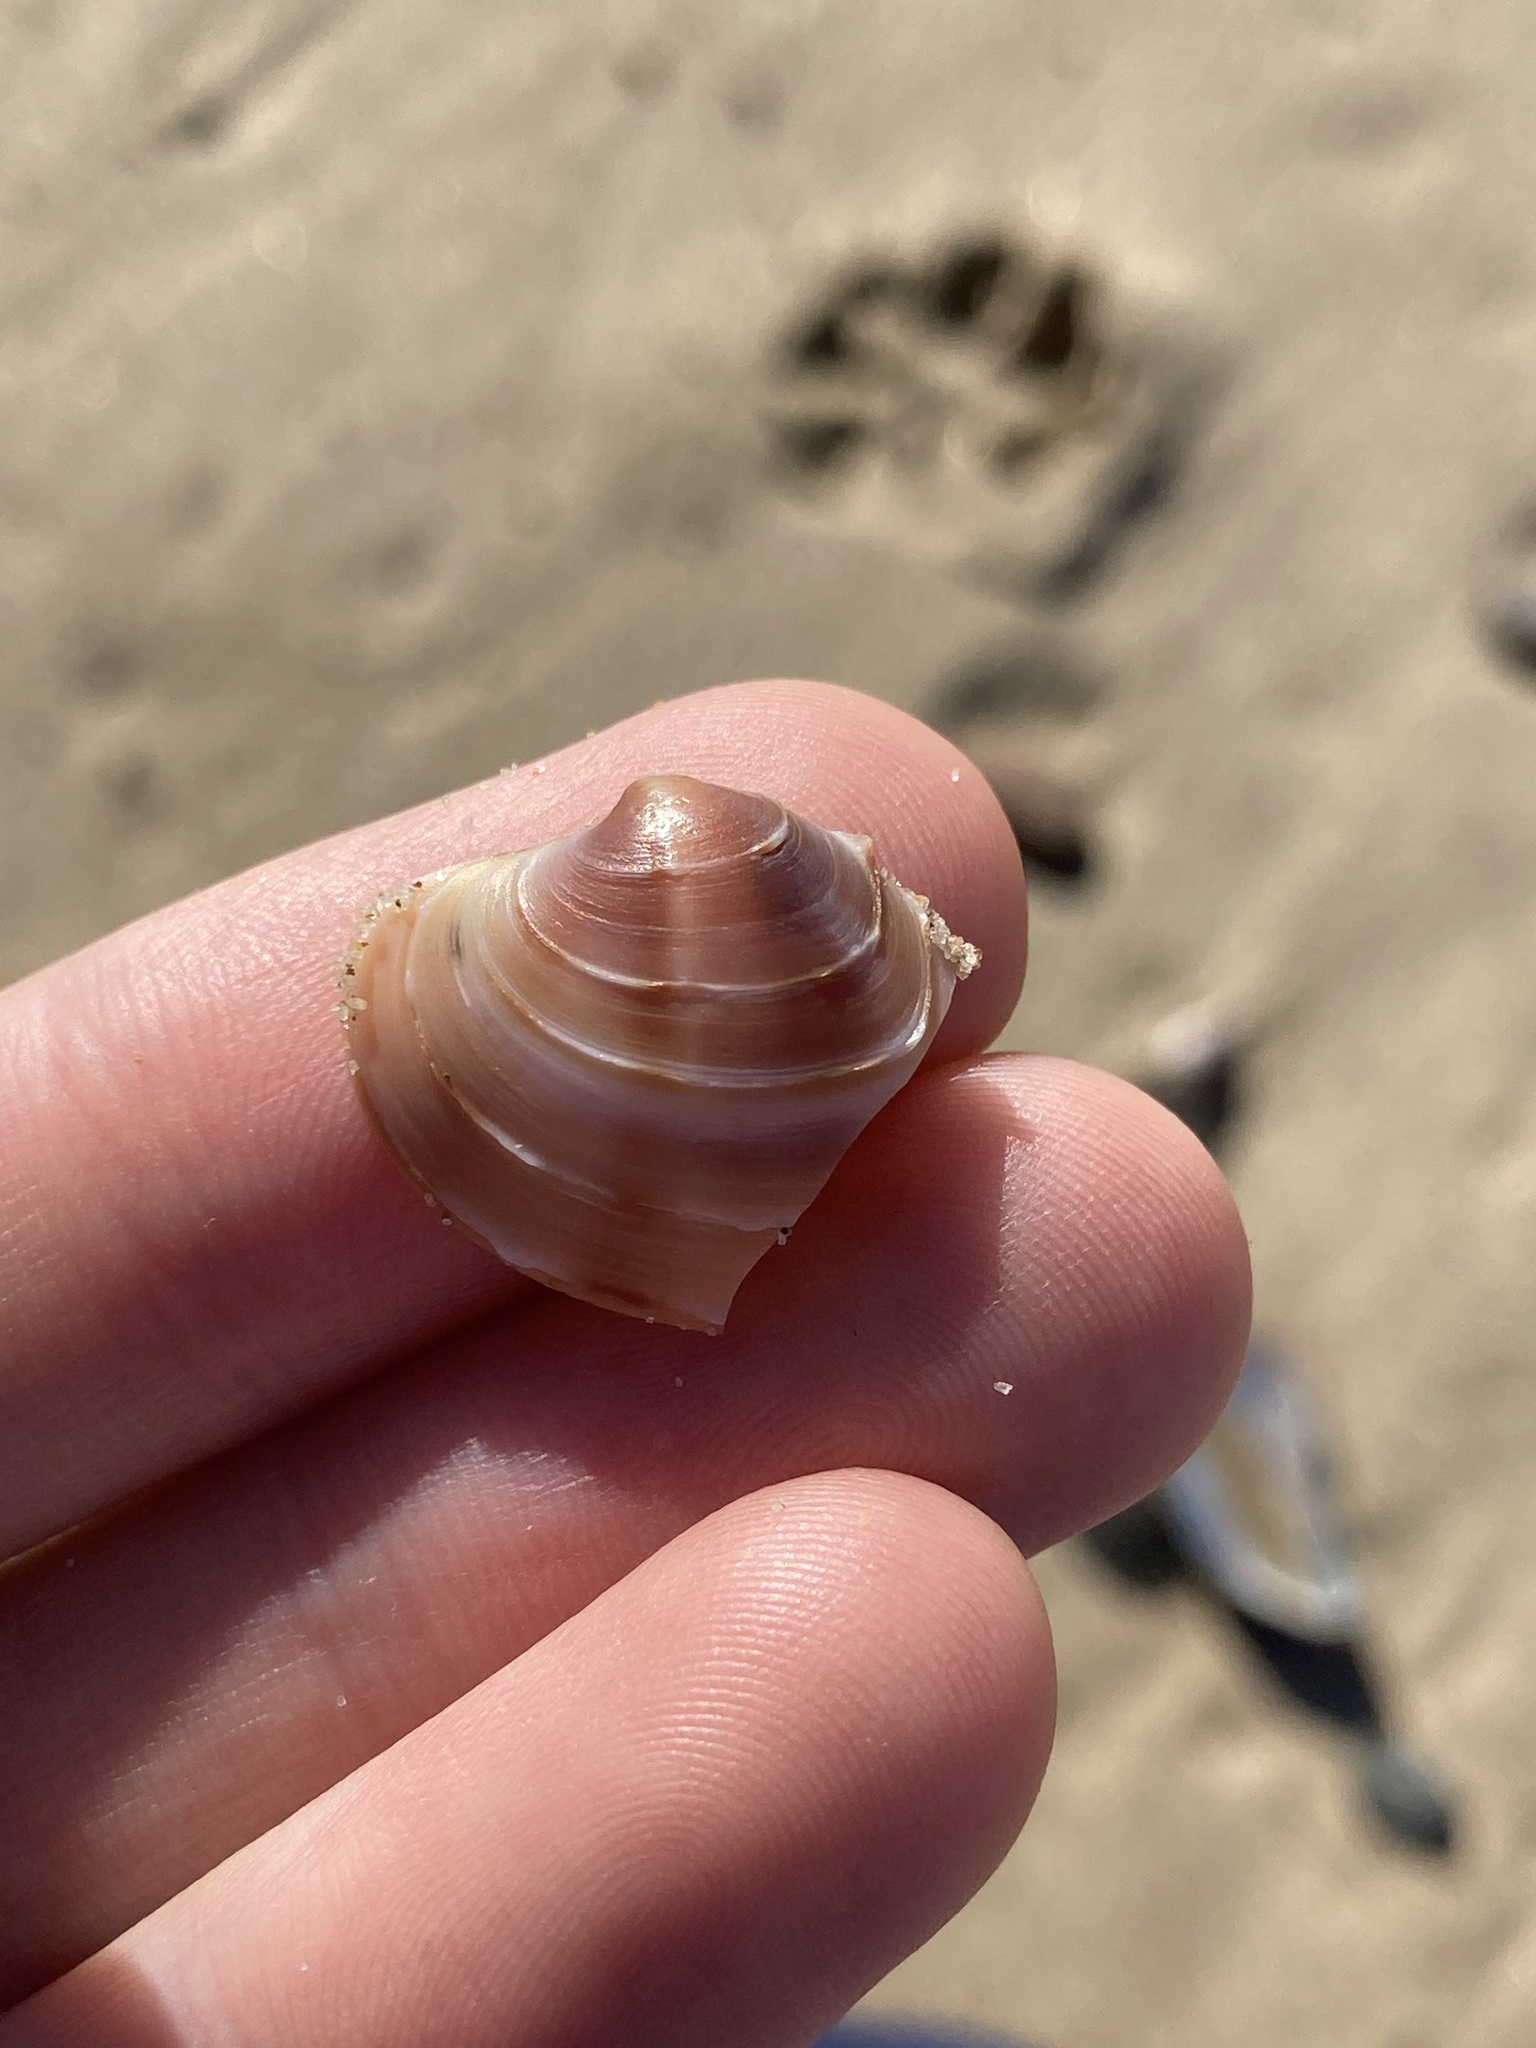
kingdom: Animalia
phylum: Mollusca
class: Bivalvia
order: Venerida
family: Veneridae
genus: Bassina
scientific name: Bassina jacksonii
